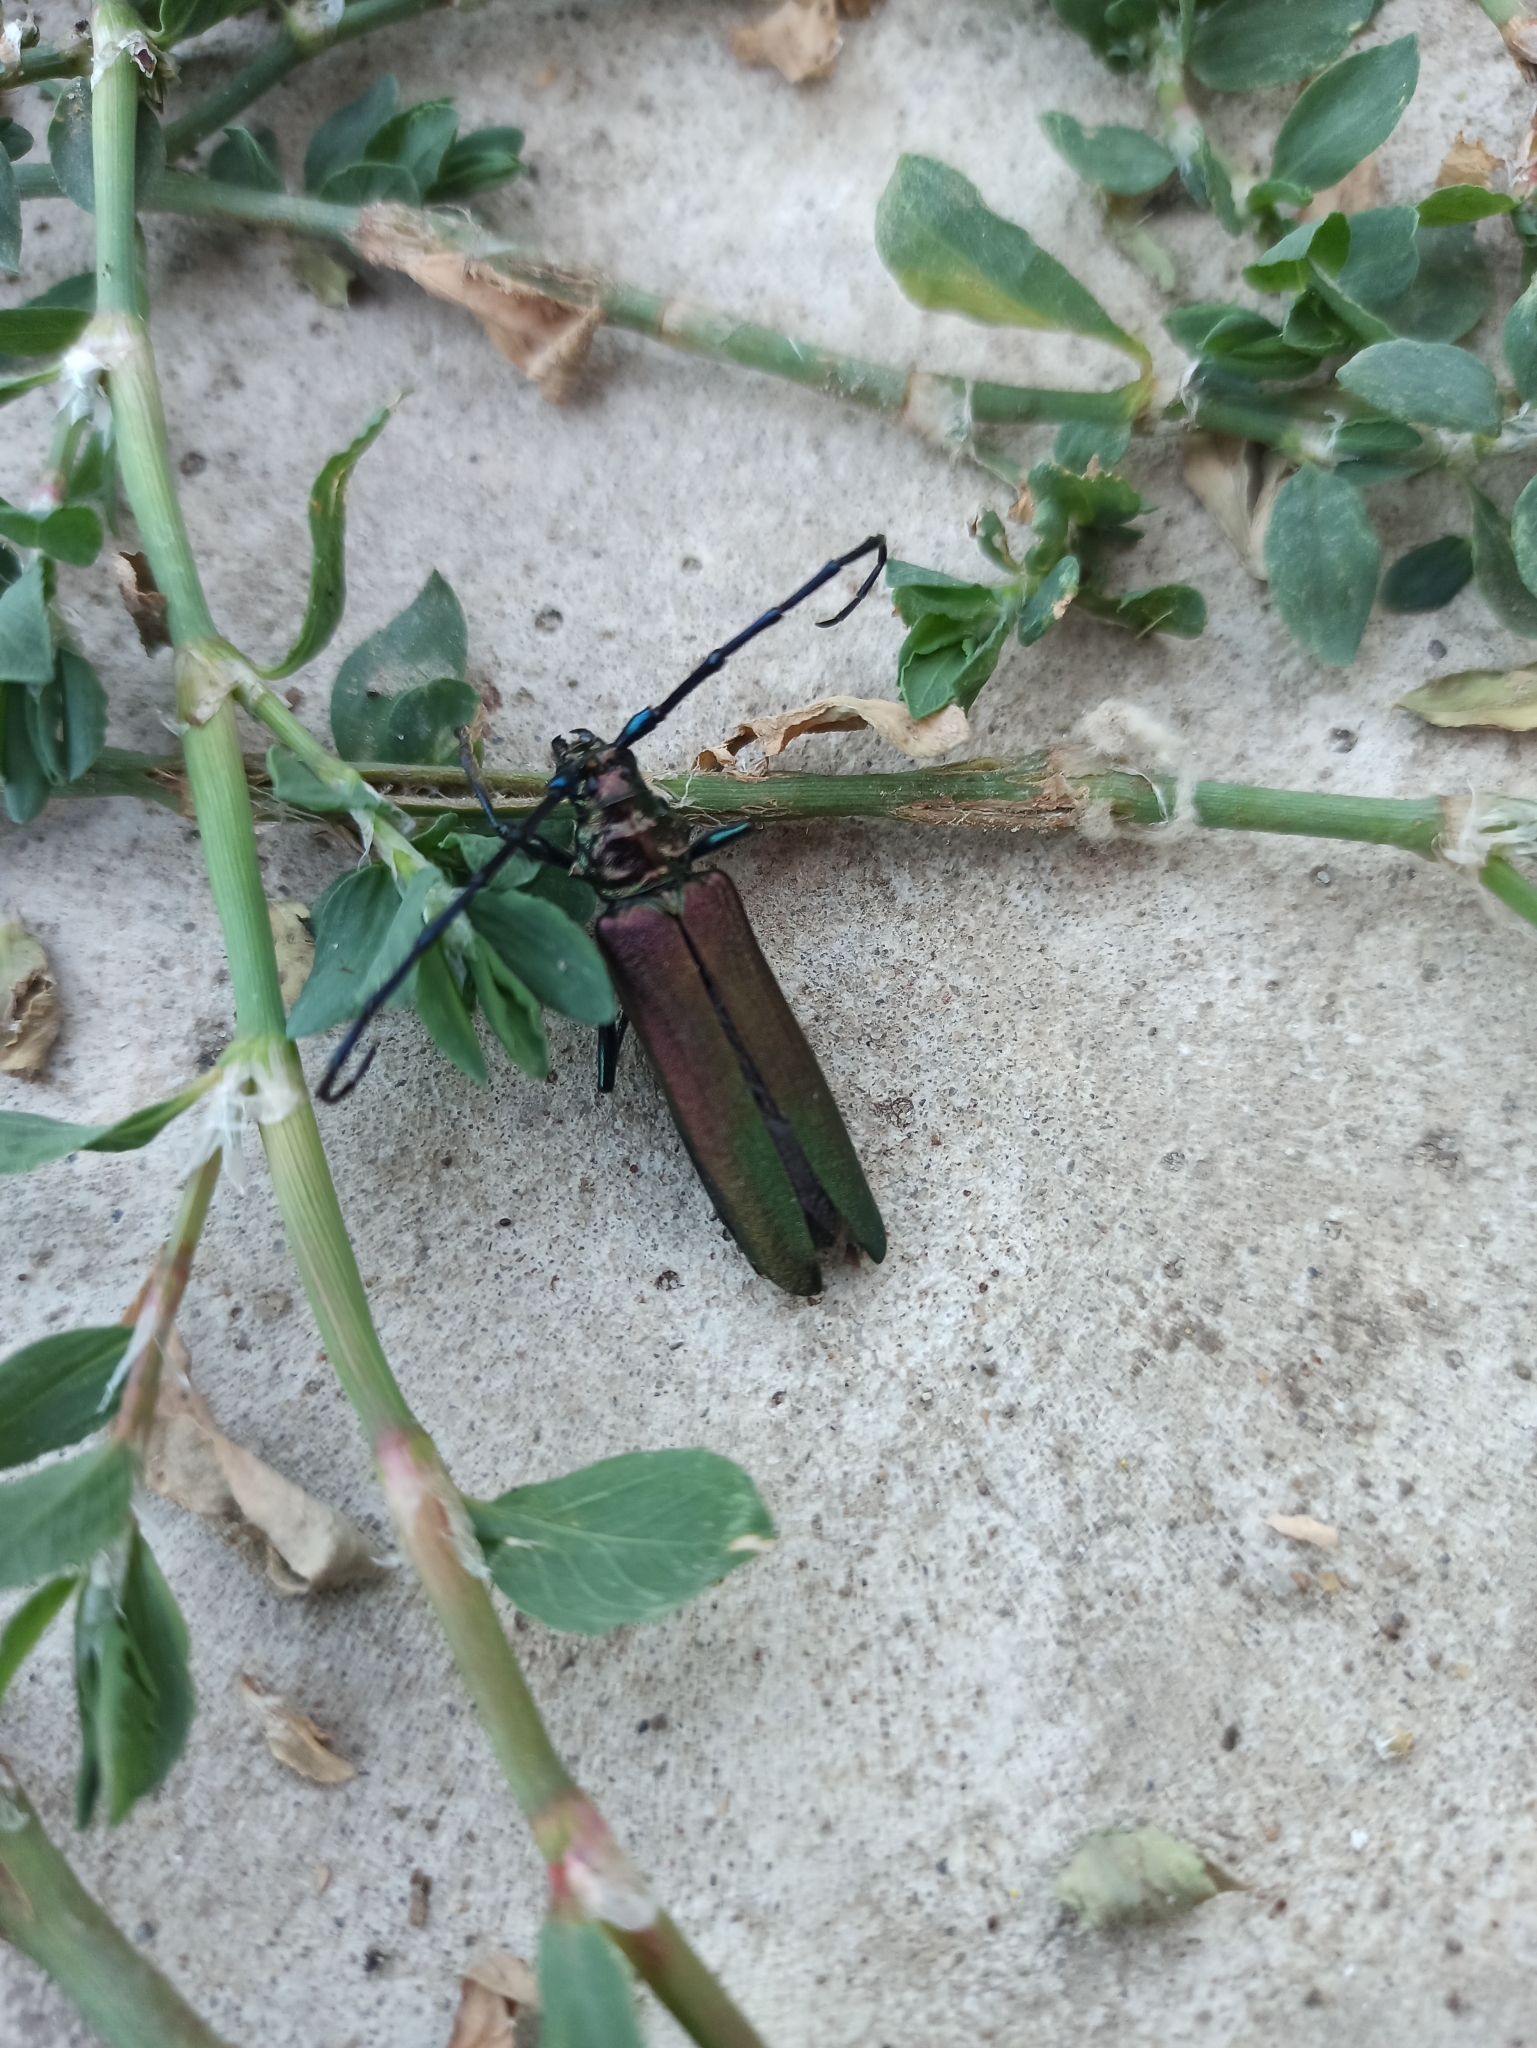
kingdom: Animalia
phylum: Arthropoda
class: Insecta
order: Coleoptera
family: Cerambycidae
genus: Aromia
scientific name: Aromia moschata
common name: Musk beetle
